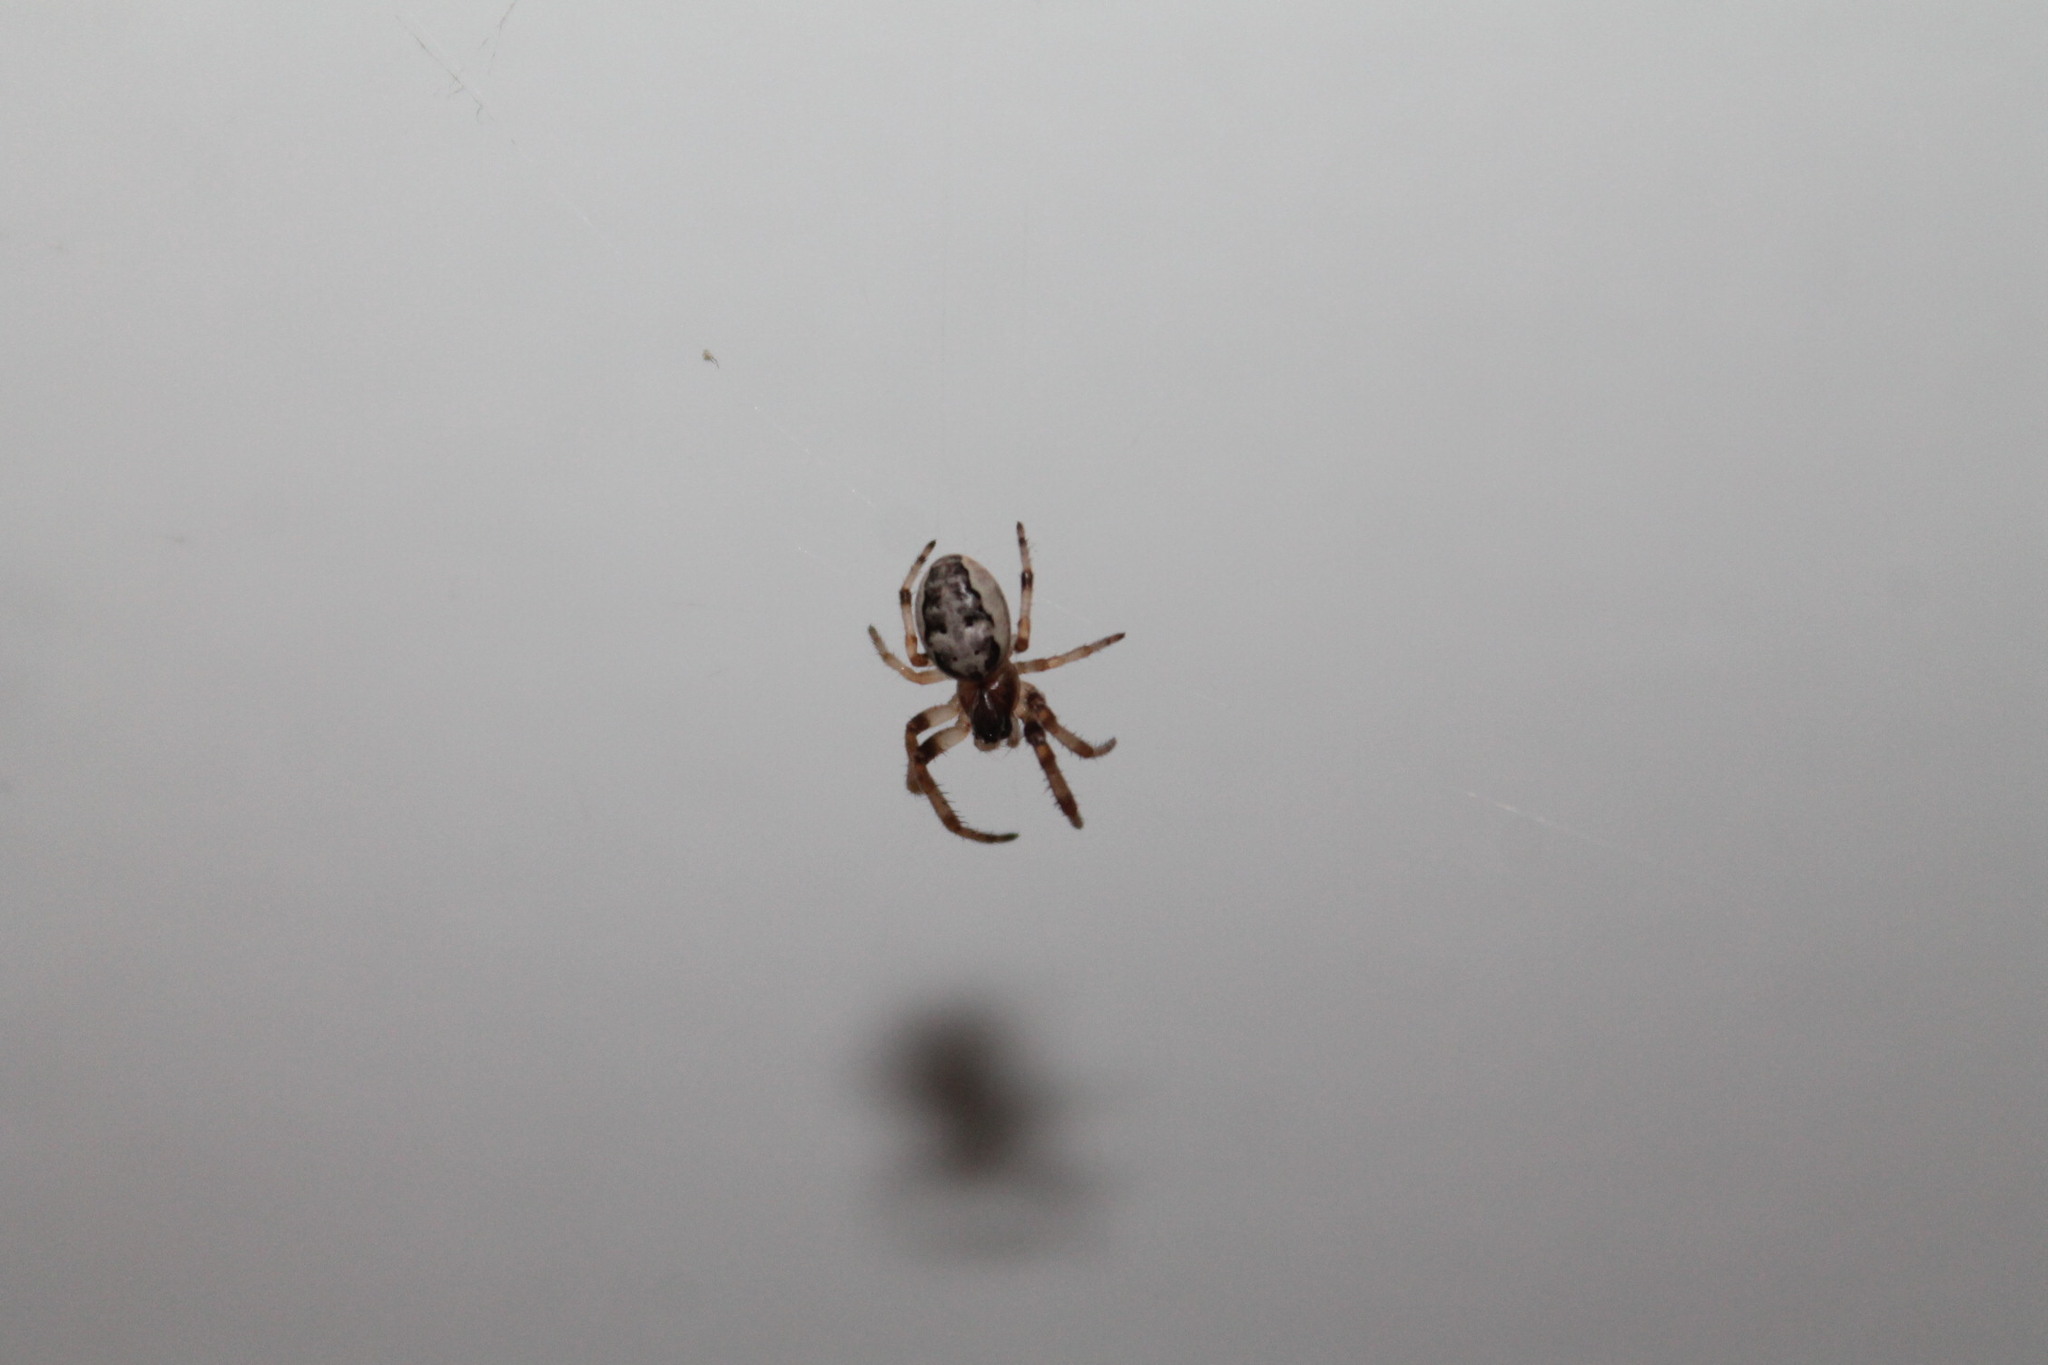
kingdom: Animalia
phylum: Arthropoda
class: Arachnida
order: Araneae
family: Araneidae
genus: Larinioides
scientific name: Larinioides cornutus
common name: Furrow orbweaver
